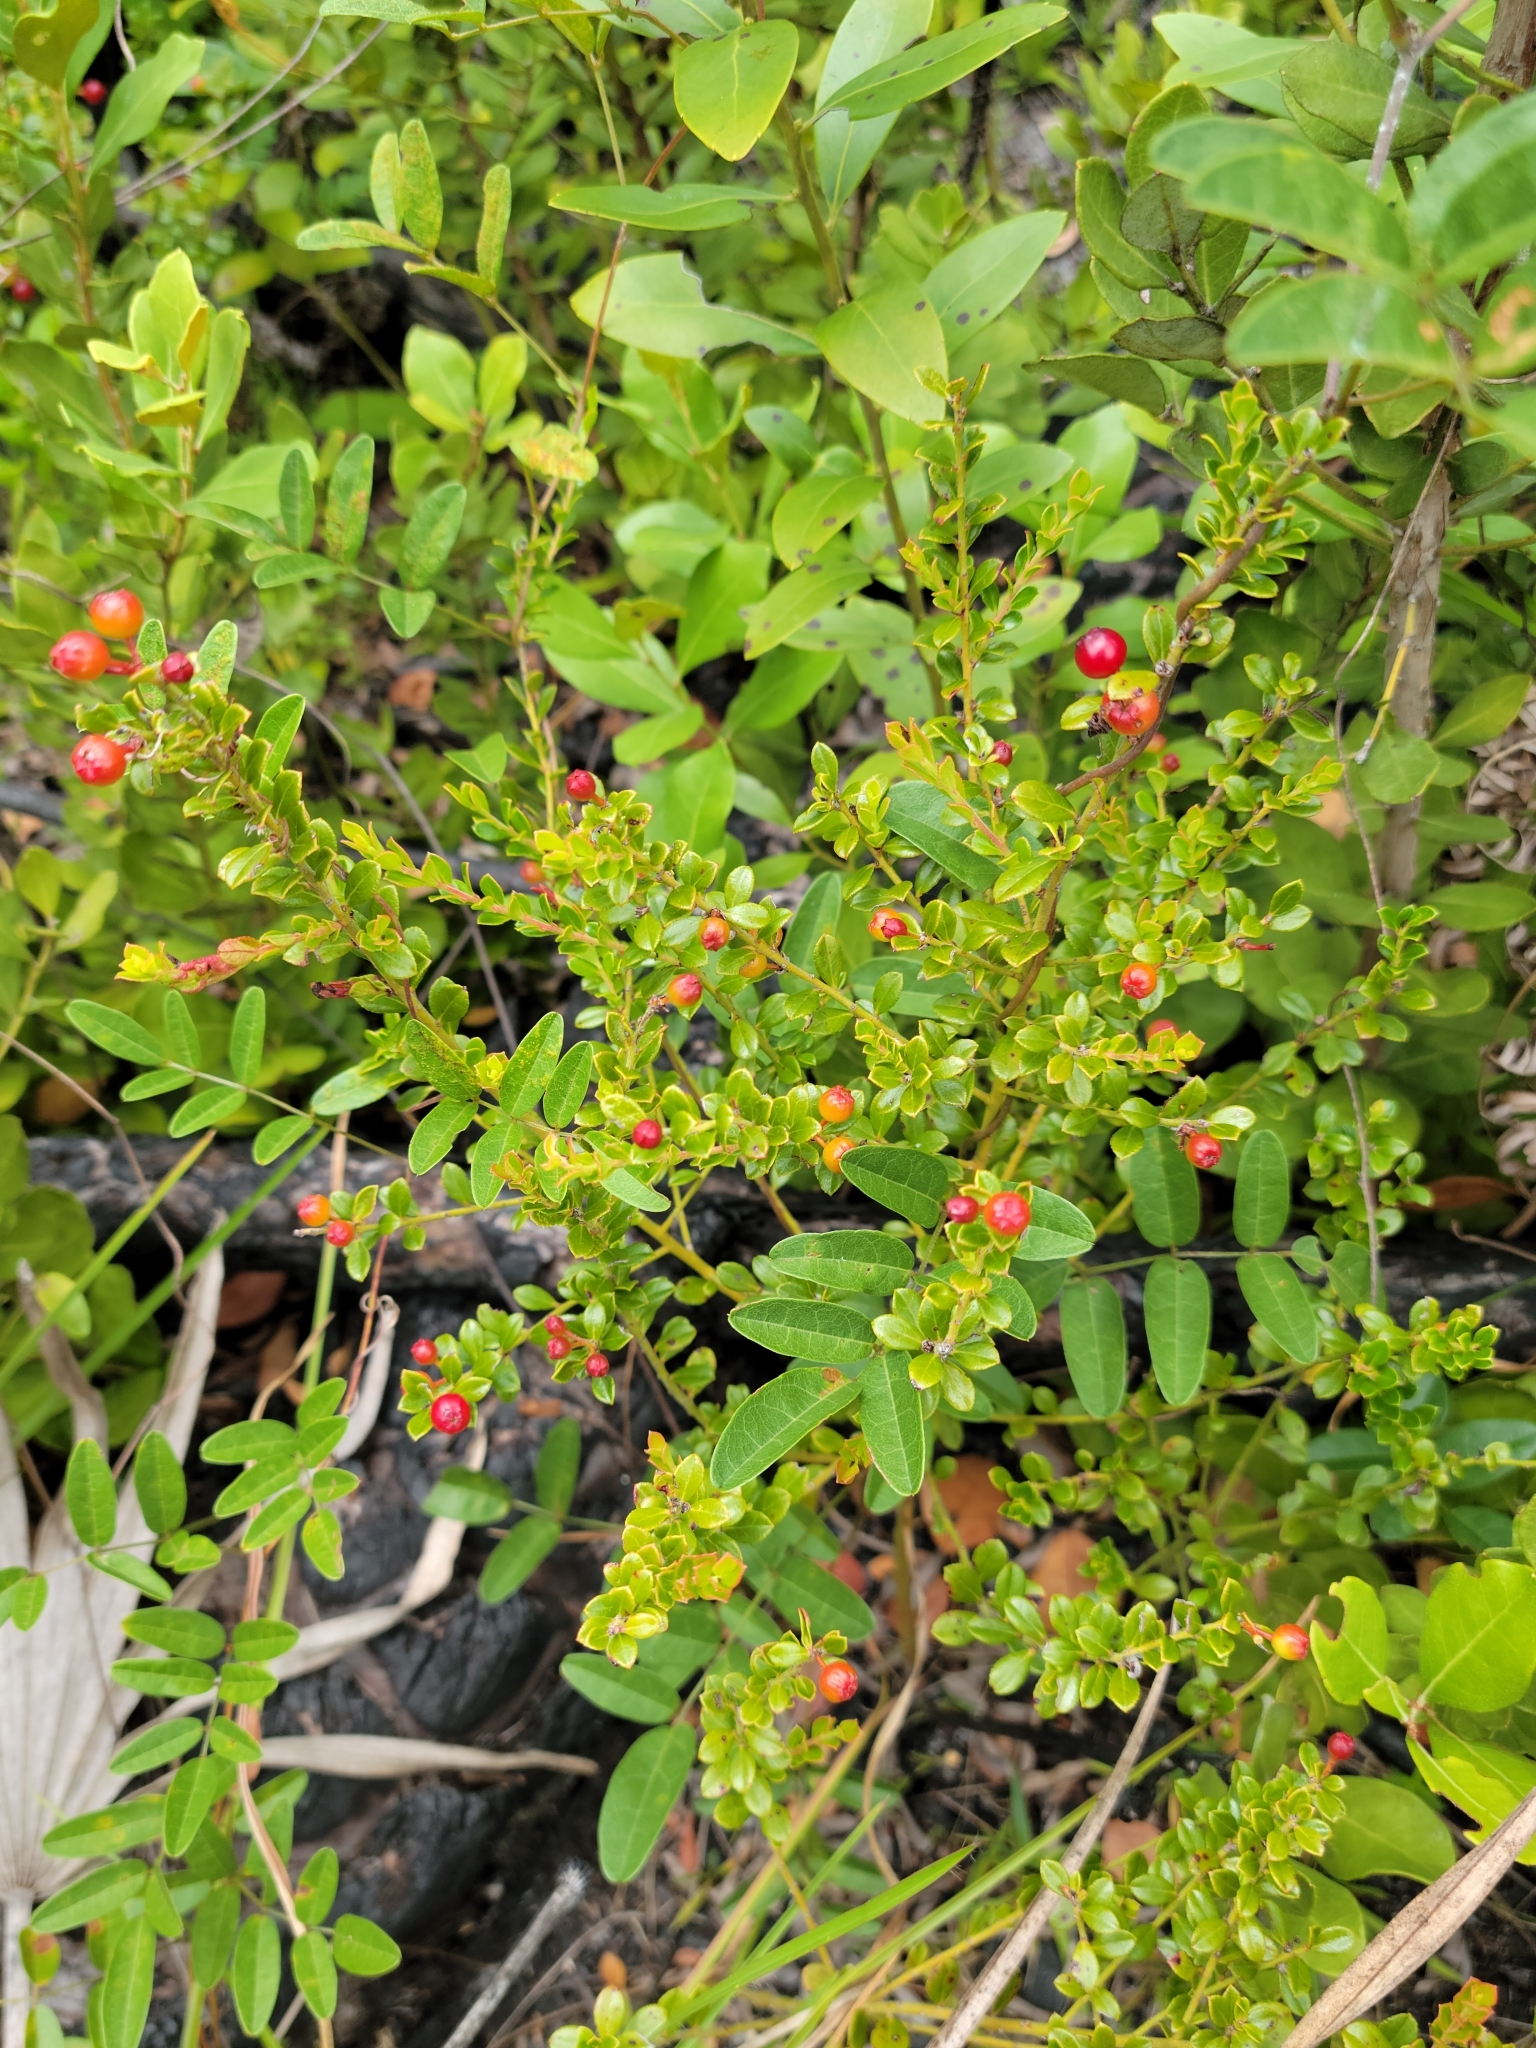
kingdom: Plantae
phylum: Tracheophyta
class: Magnoliopsida
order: Ericales
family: Ericaceae
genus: Vaccinium
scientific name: Vaccinium myrsinites
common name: Evergreen blueberry
